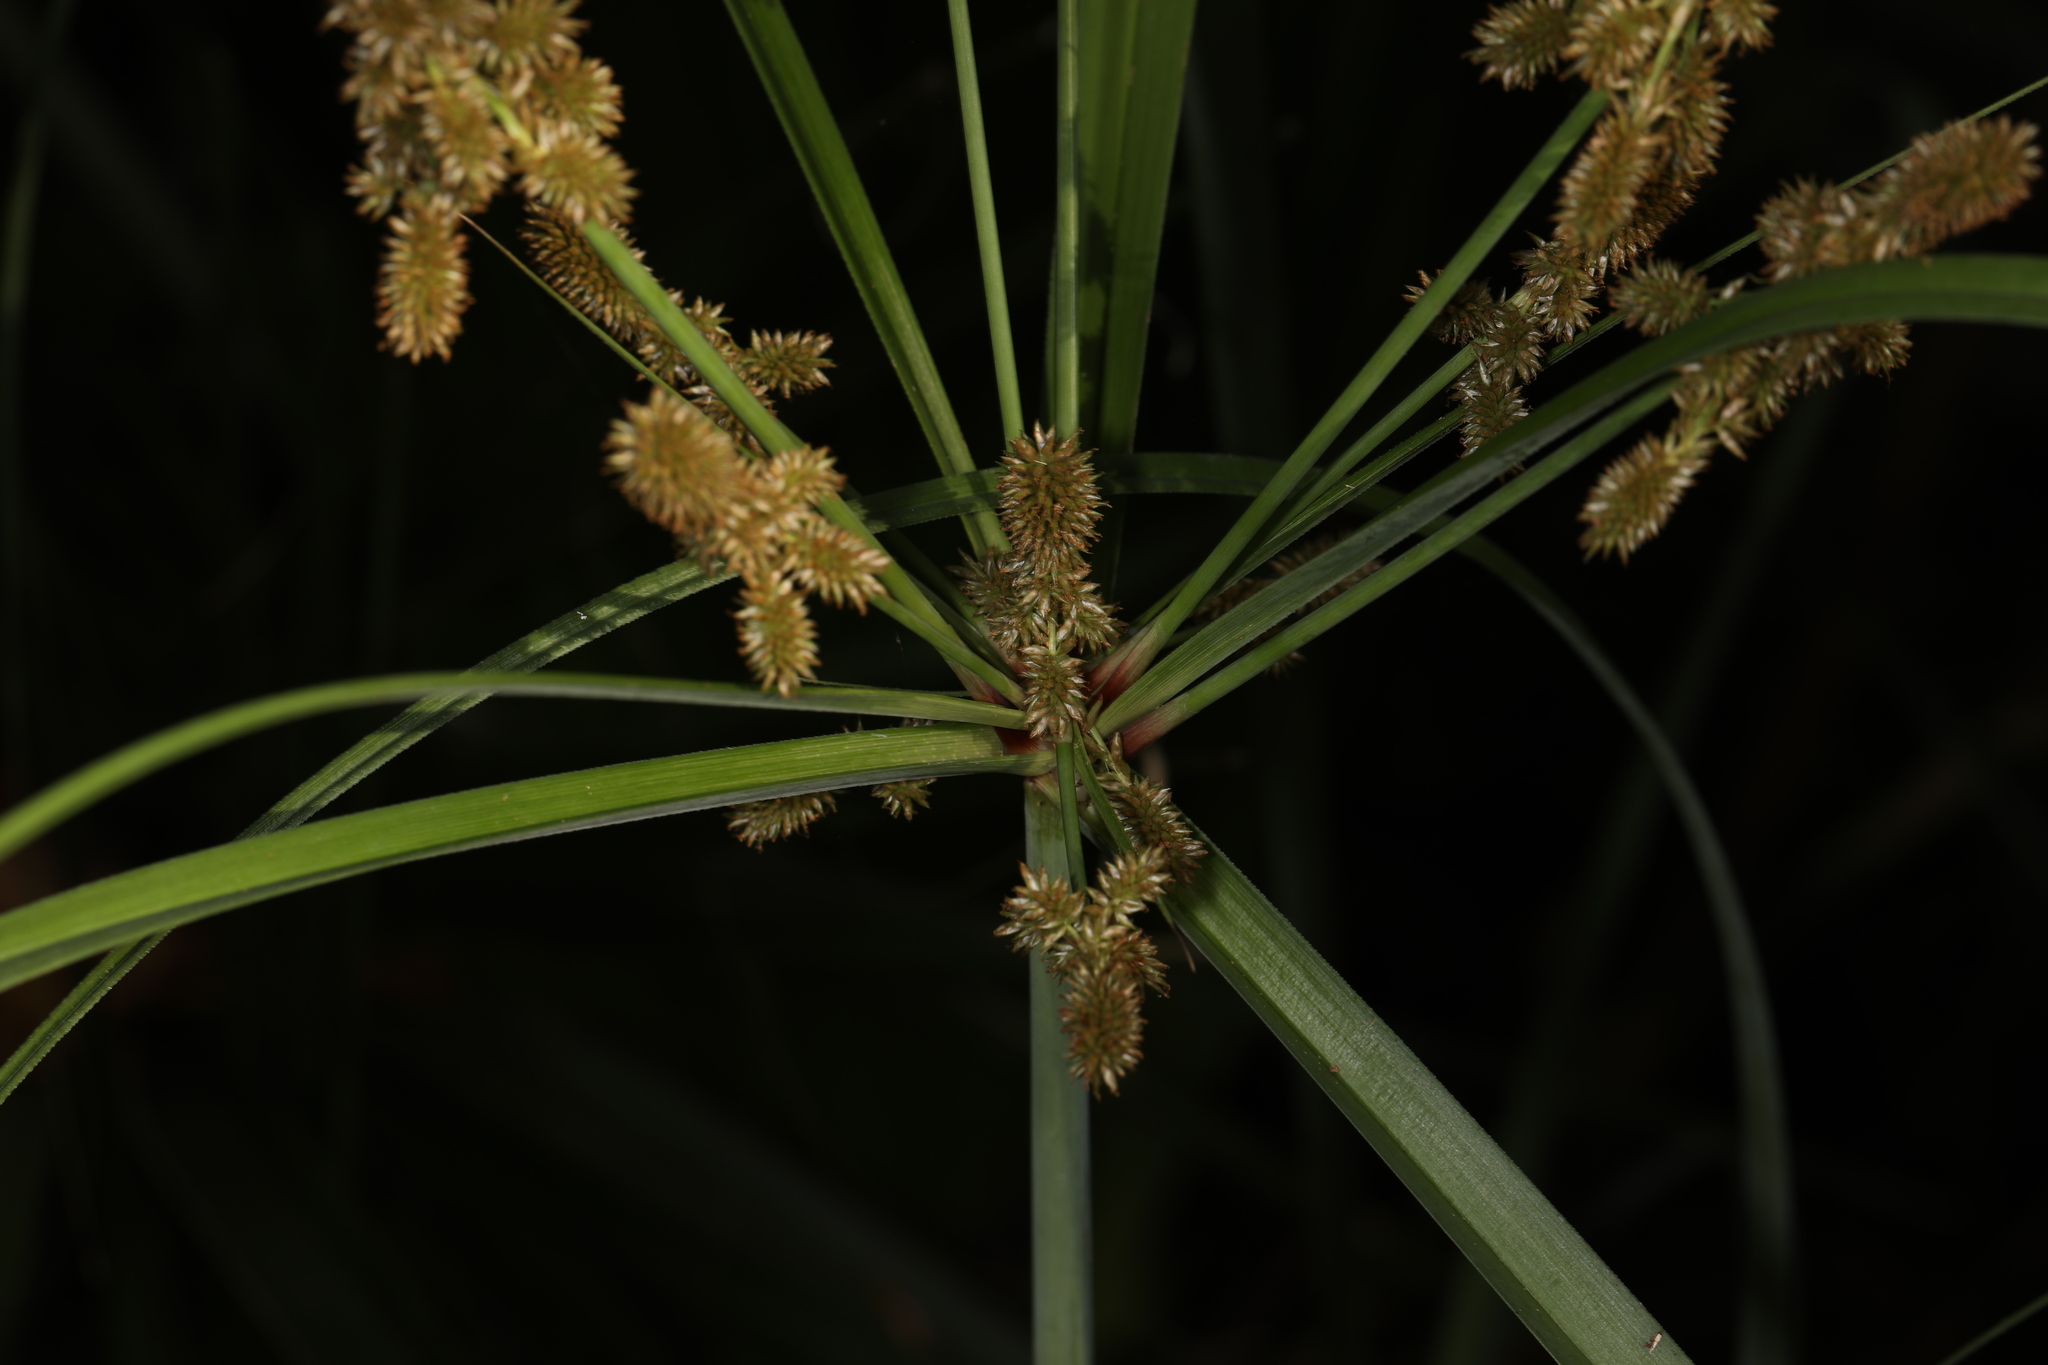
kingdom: Plantae
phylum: Tracheophyta
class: Liliopsida
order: Poales
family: Cyperaceae
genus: Cyperus
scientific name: Cyperus ligularis
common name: Swamp flat sedge
